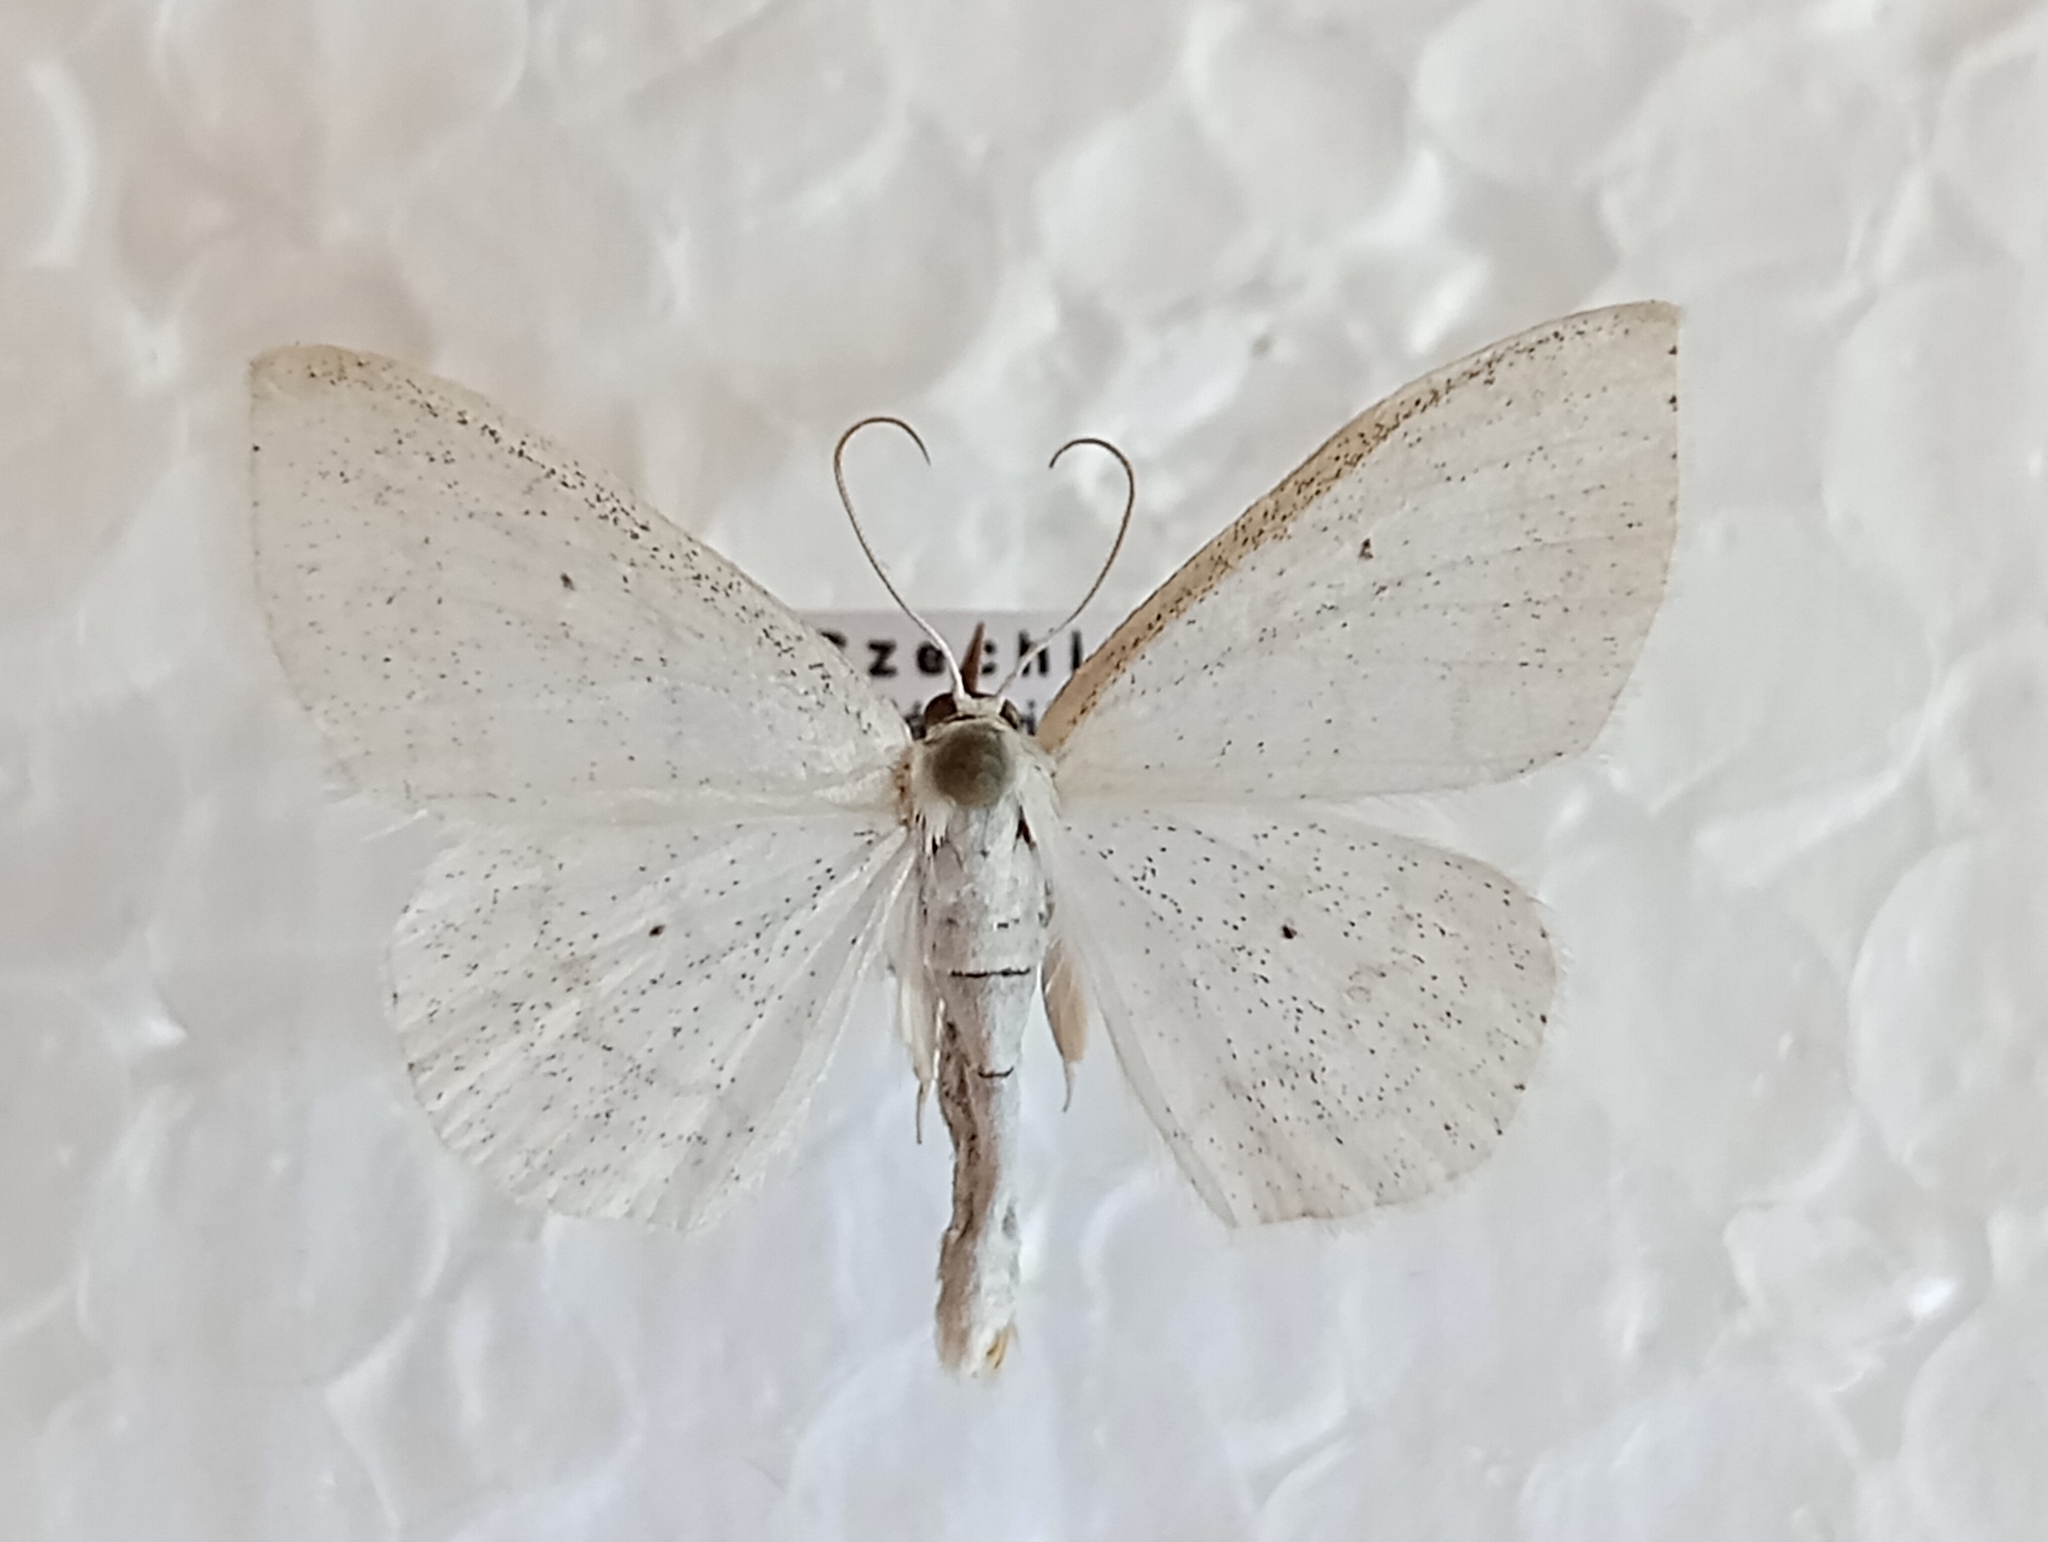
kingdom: Animalia
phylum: Arthropoda
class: Insecta
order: Lepidoptera
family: Geometridae
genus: Scopula
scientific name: Scopula subpunctaria
